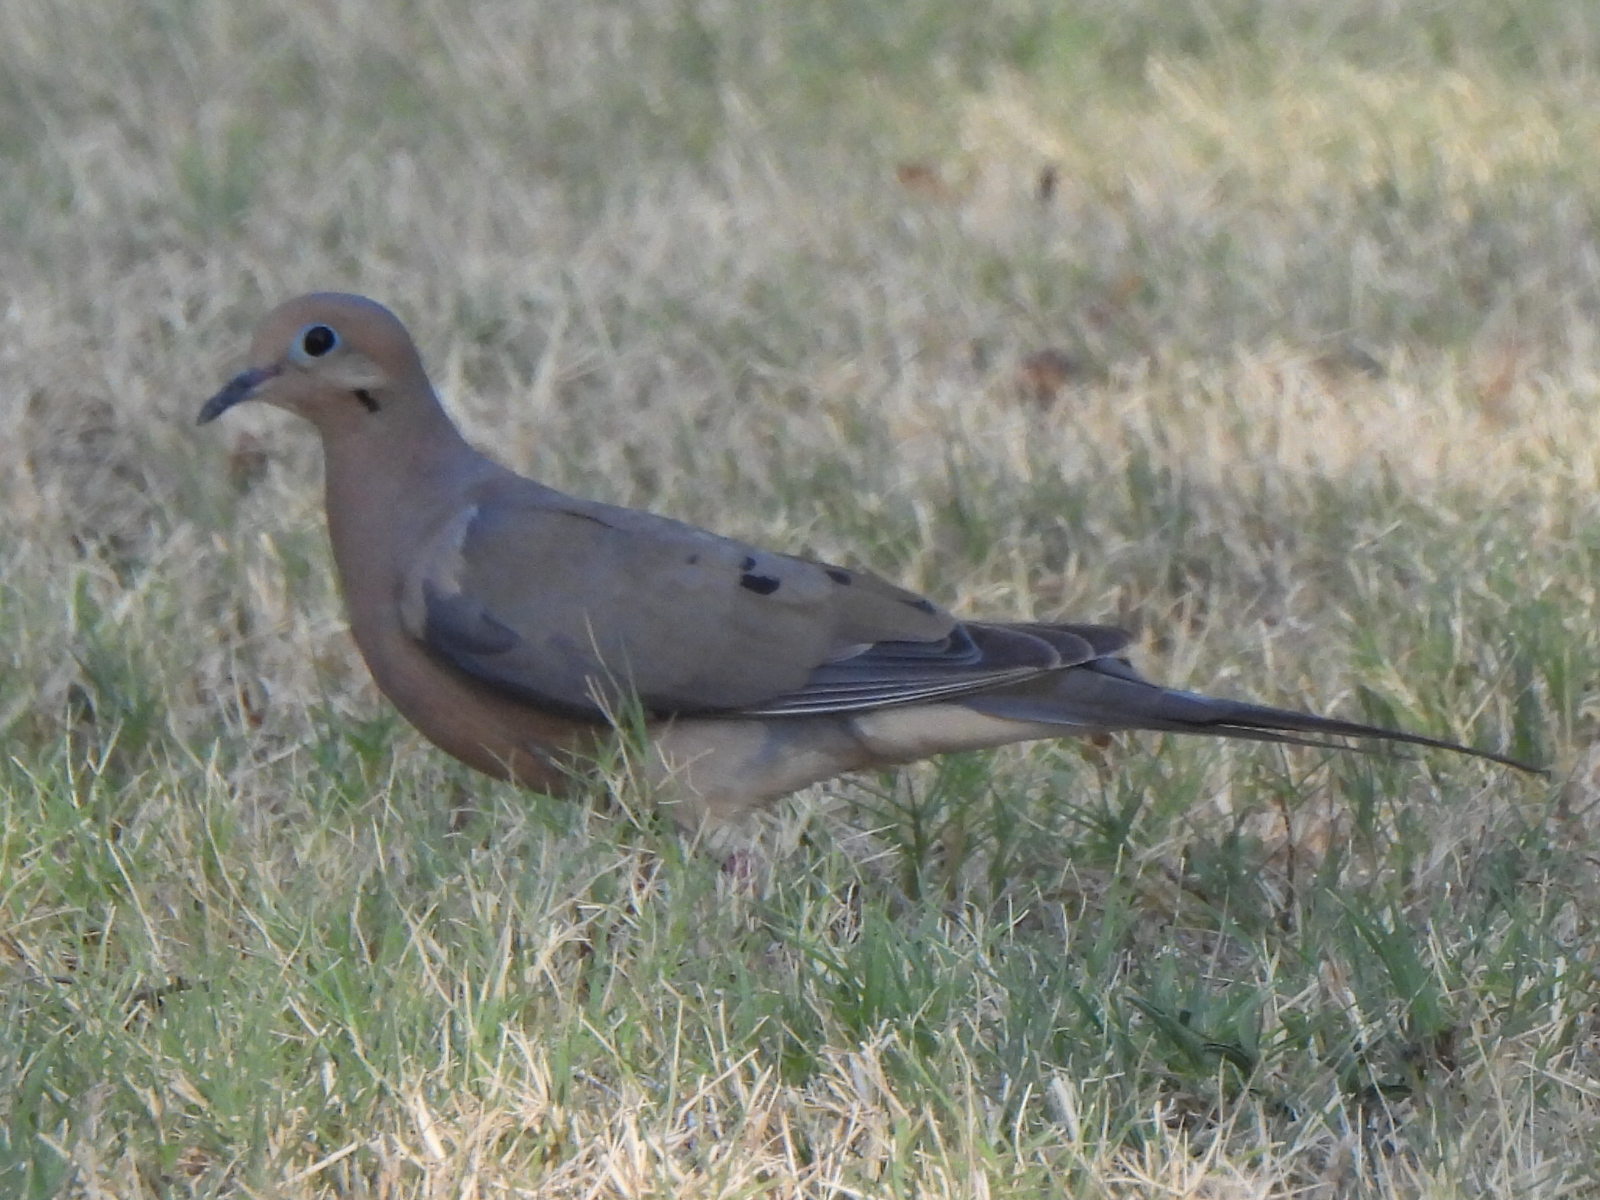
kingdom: Animalia
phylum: Chordata
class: Aves
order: Columbiformes
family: Columbidae
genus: Zenaida
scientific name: Zenaida macroura
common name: Mourning dove
